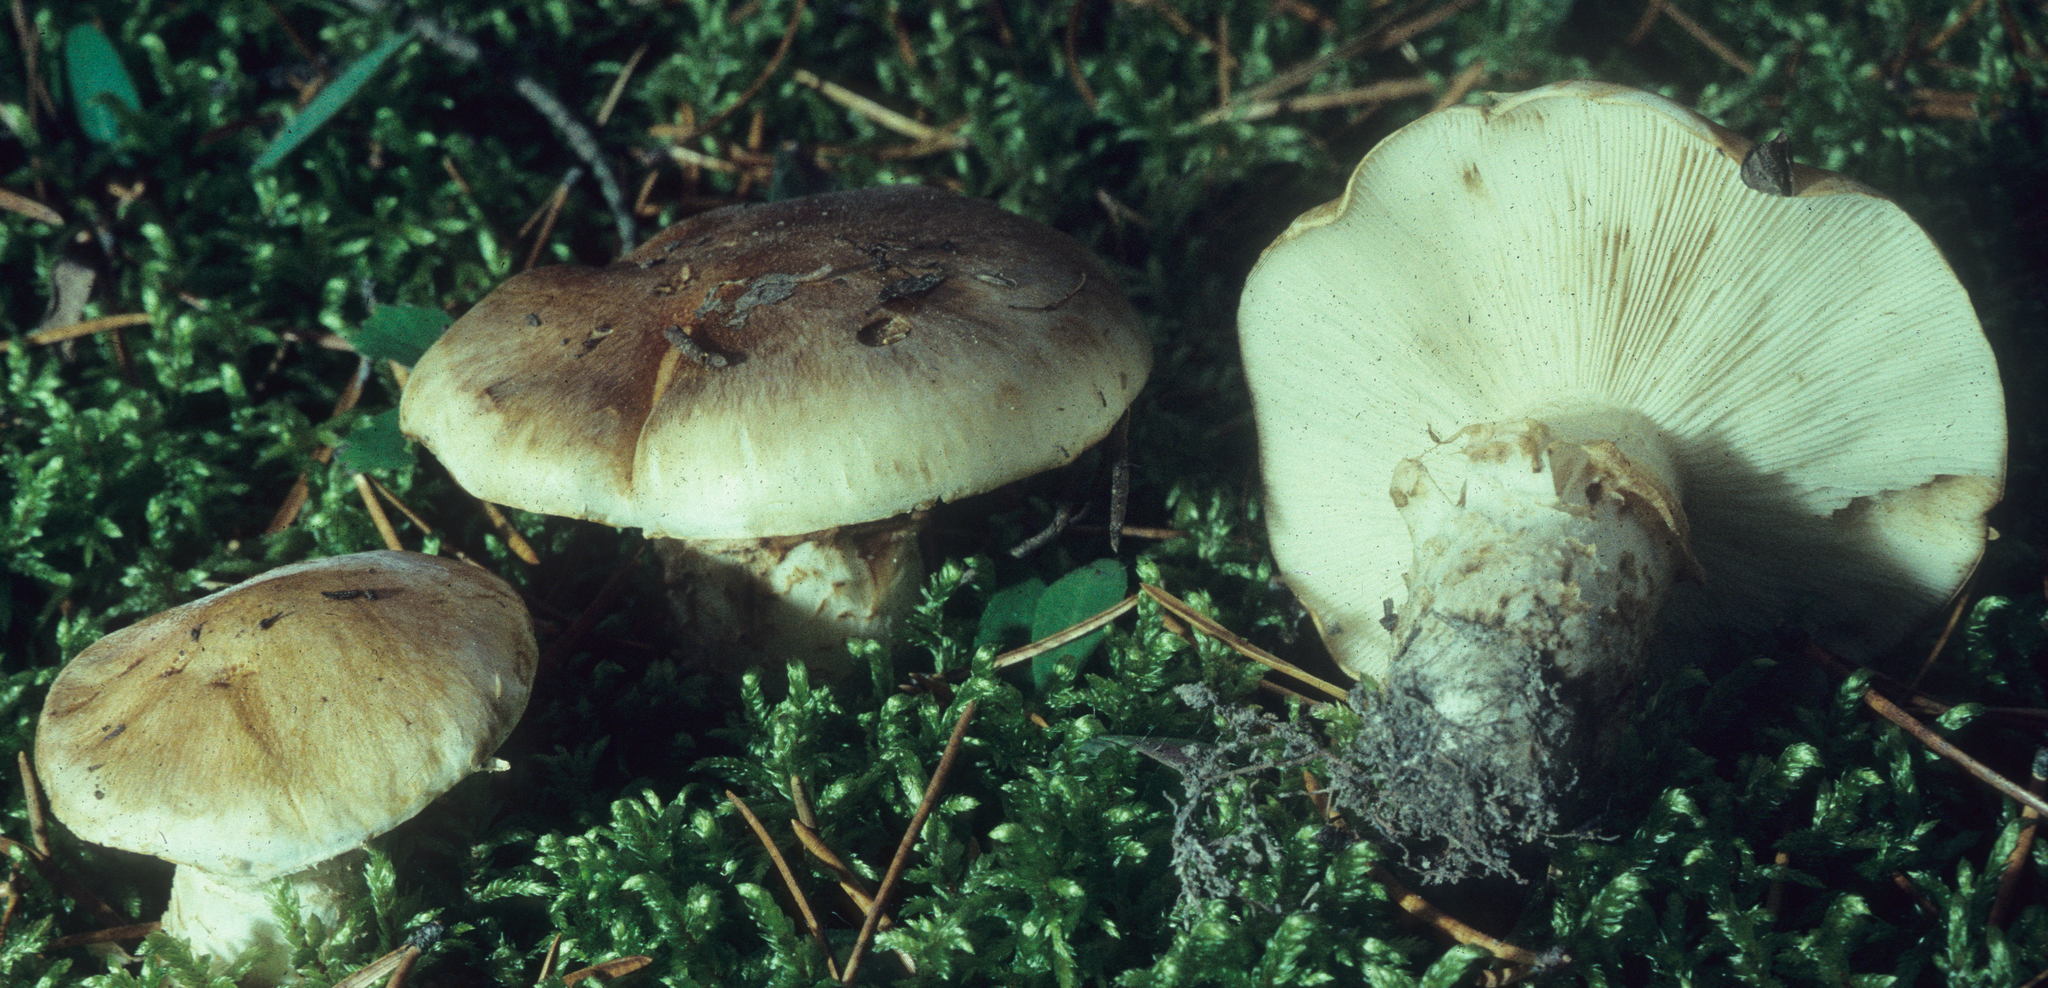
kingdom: Fungi
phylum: Basidiomycota
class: Agaricomycetes
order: Agaricales
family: Tricholomataceae
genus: Tricholoma
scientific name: Tricholoma caligatum
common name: True booted knight
